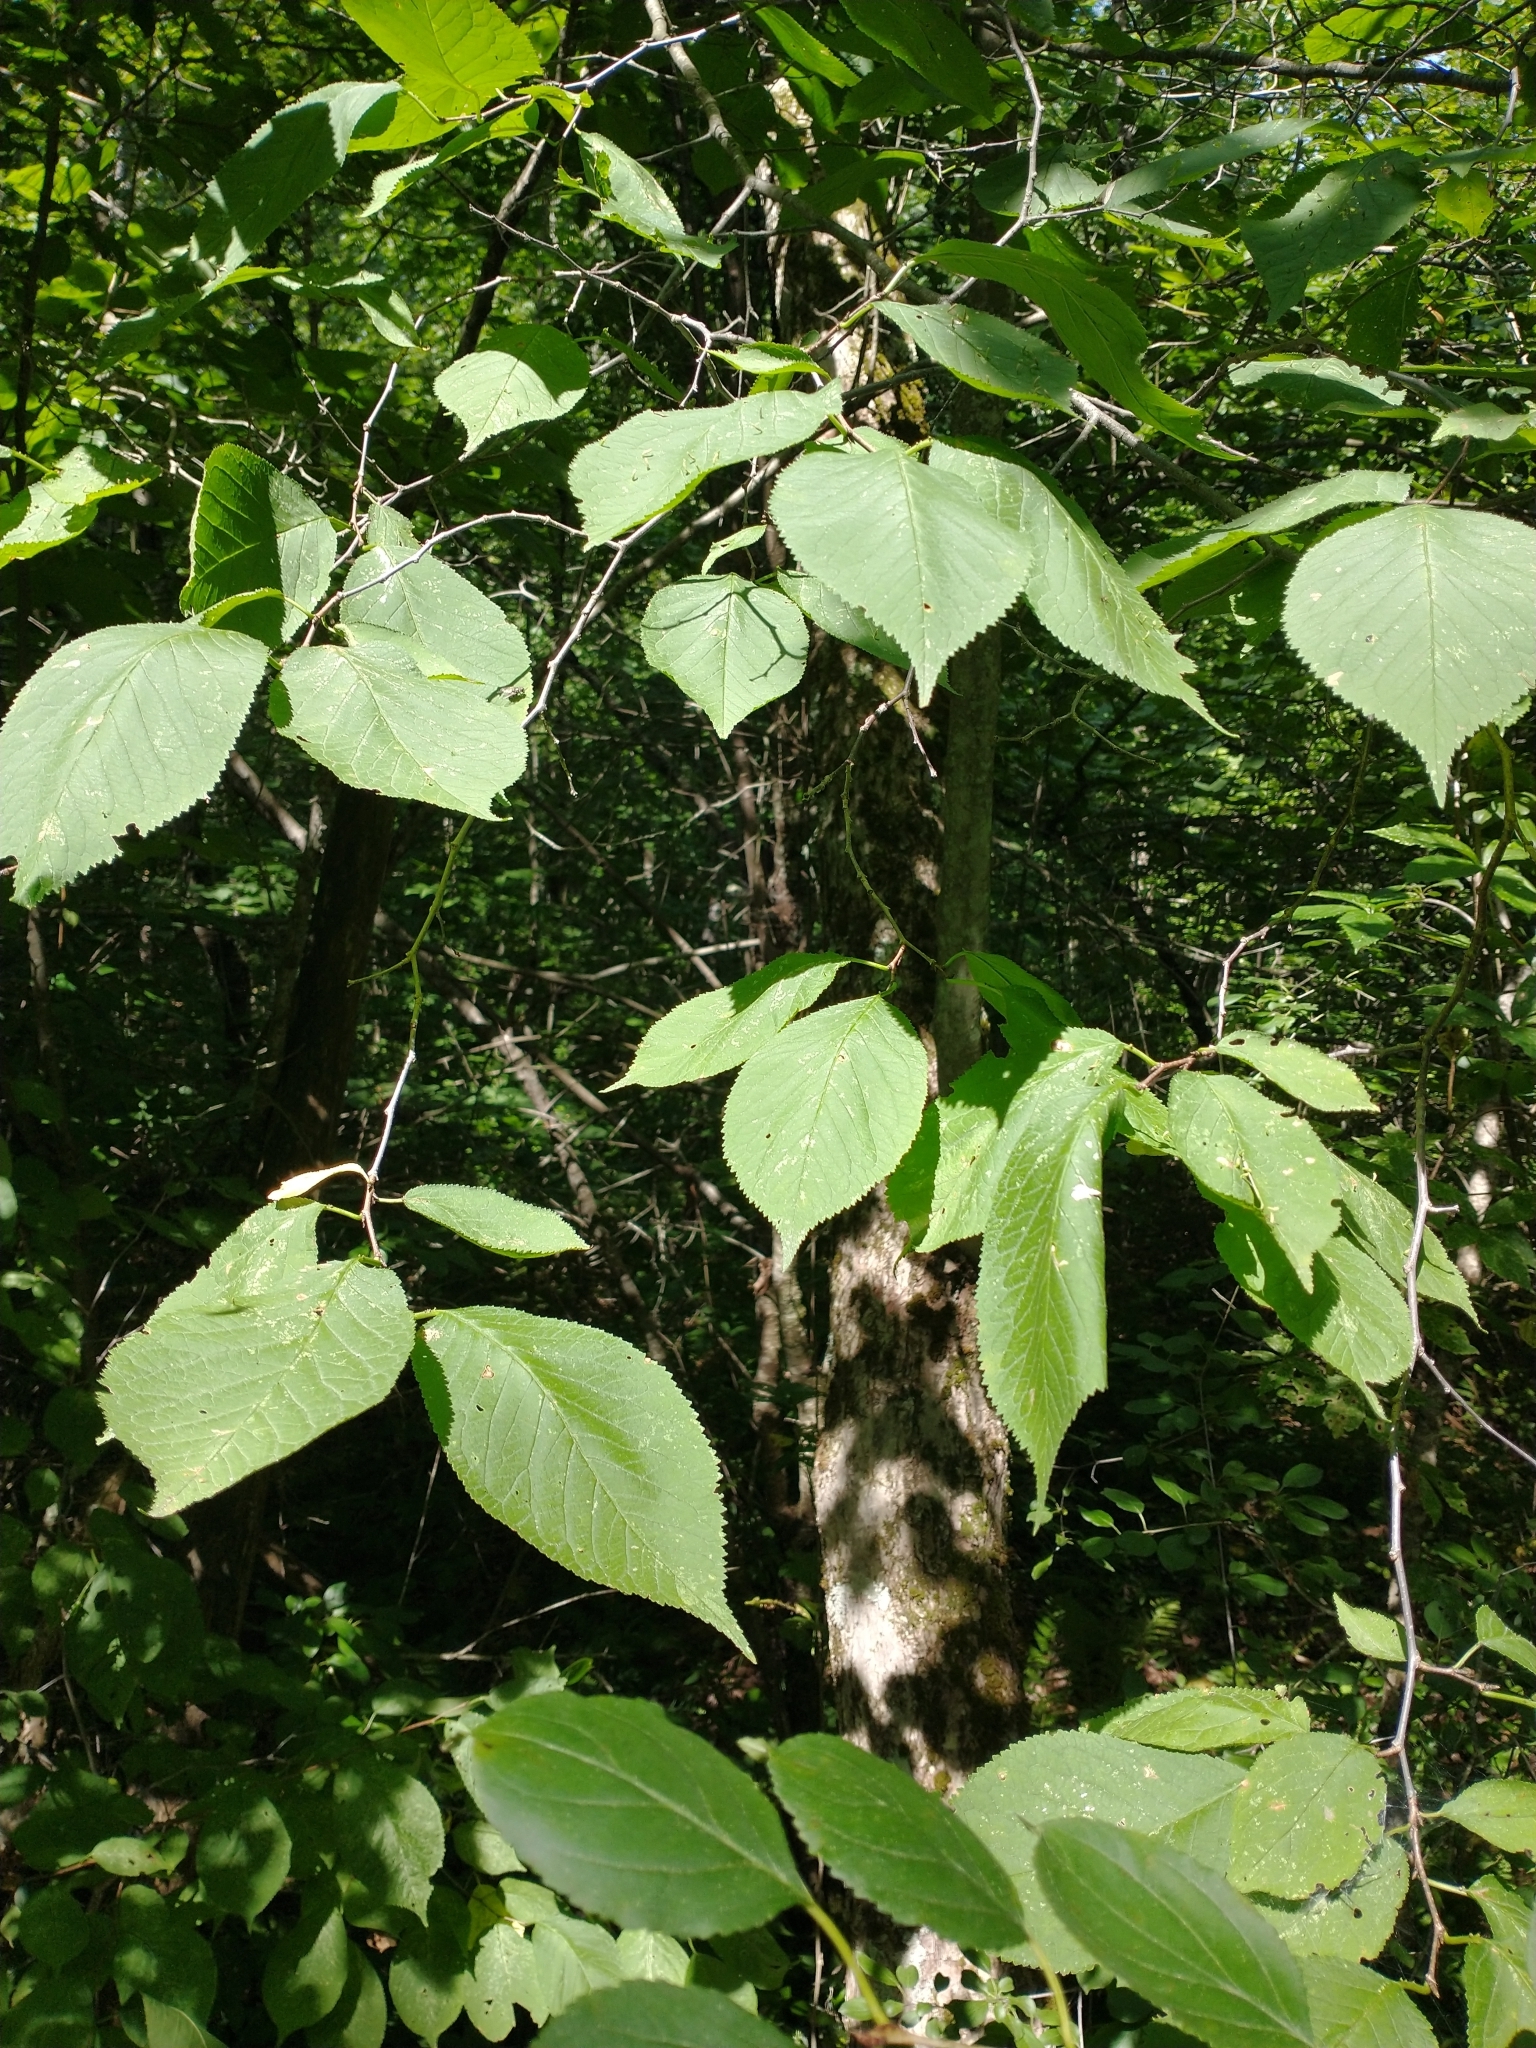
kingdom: Plantae
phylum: Tracheophyta
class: Magnoliopsida
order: Rosales
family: Rosaceae
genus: Prunus
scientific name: Prunus nigra
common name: Black plum
